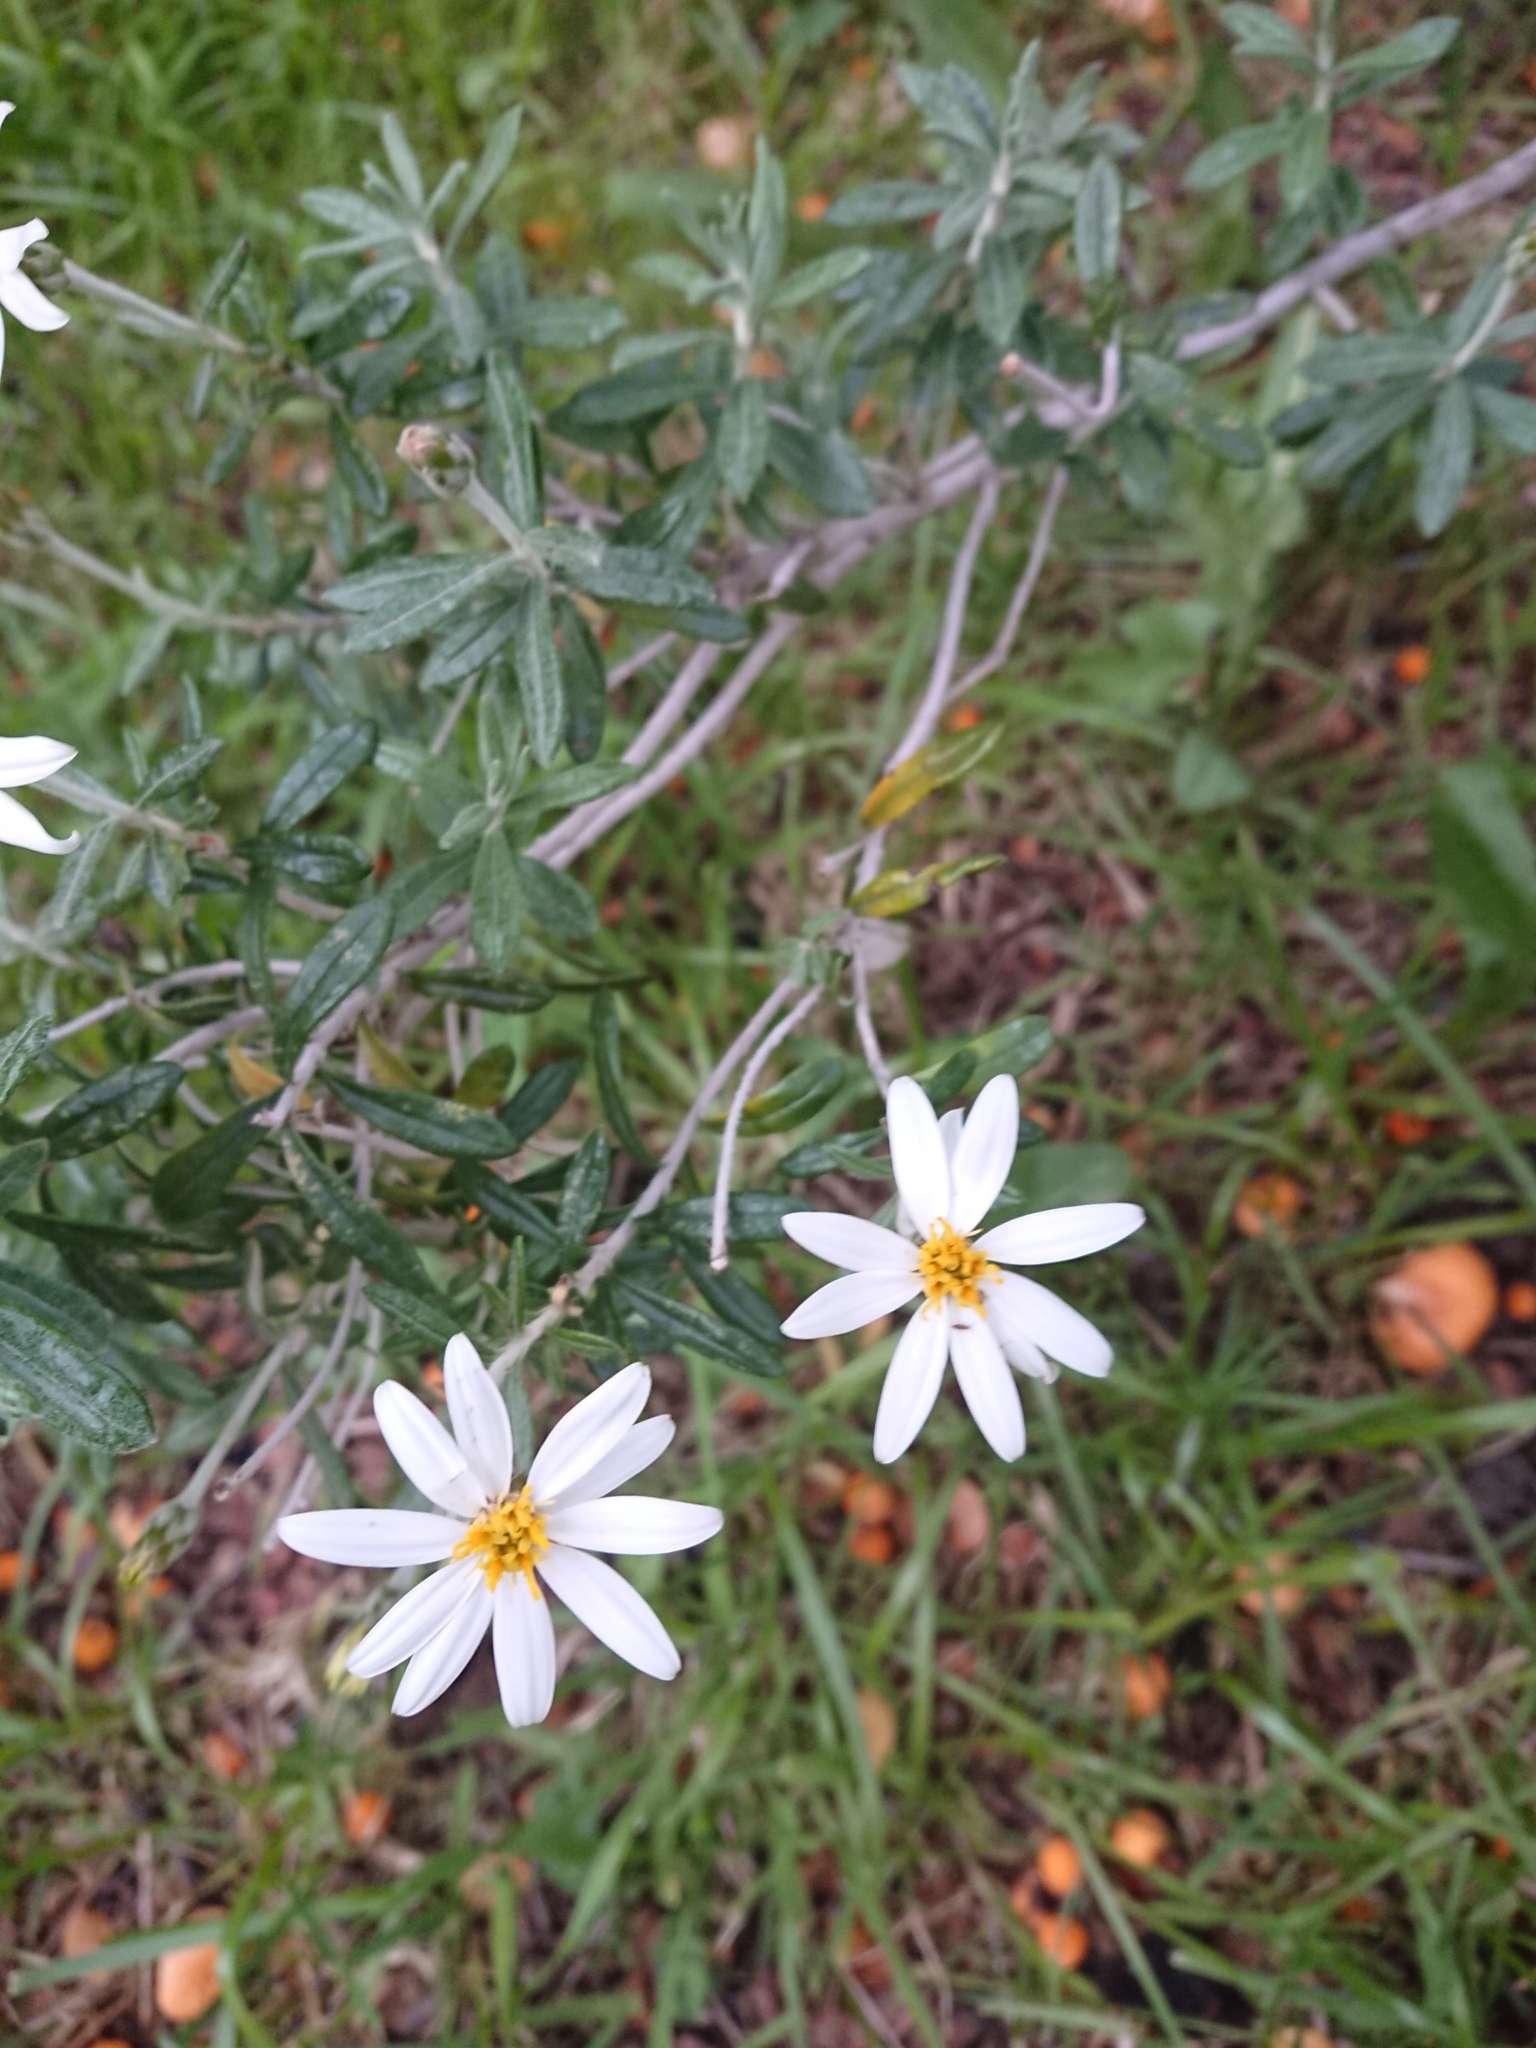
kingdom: Plantae
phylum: Tracheophyta
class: Magnoliopsida
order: Asterales
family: Asteraceae
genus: Chiliotrichum
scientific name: Chiliotrichum diffusum
